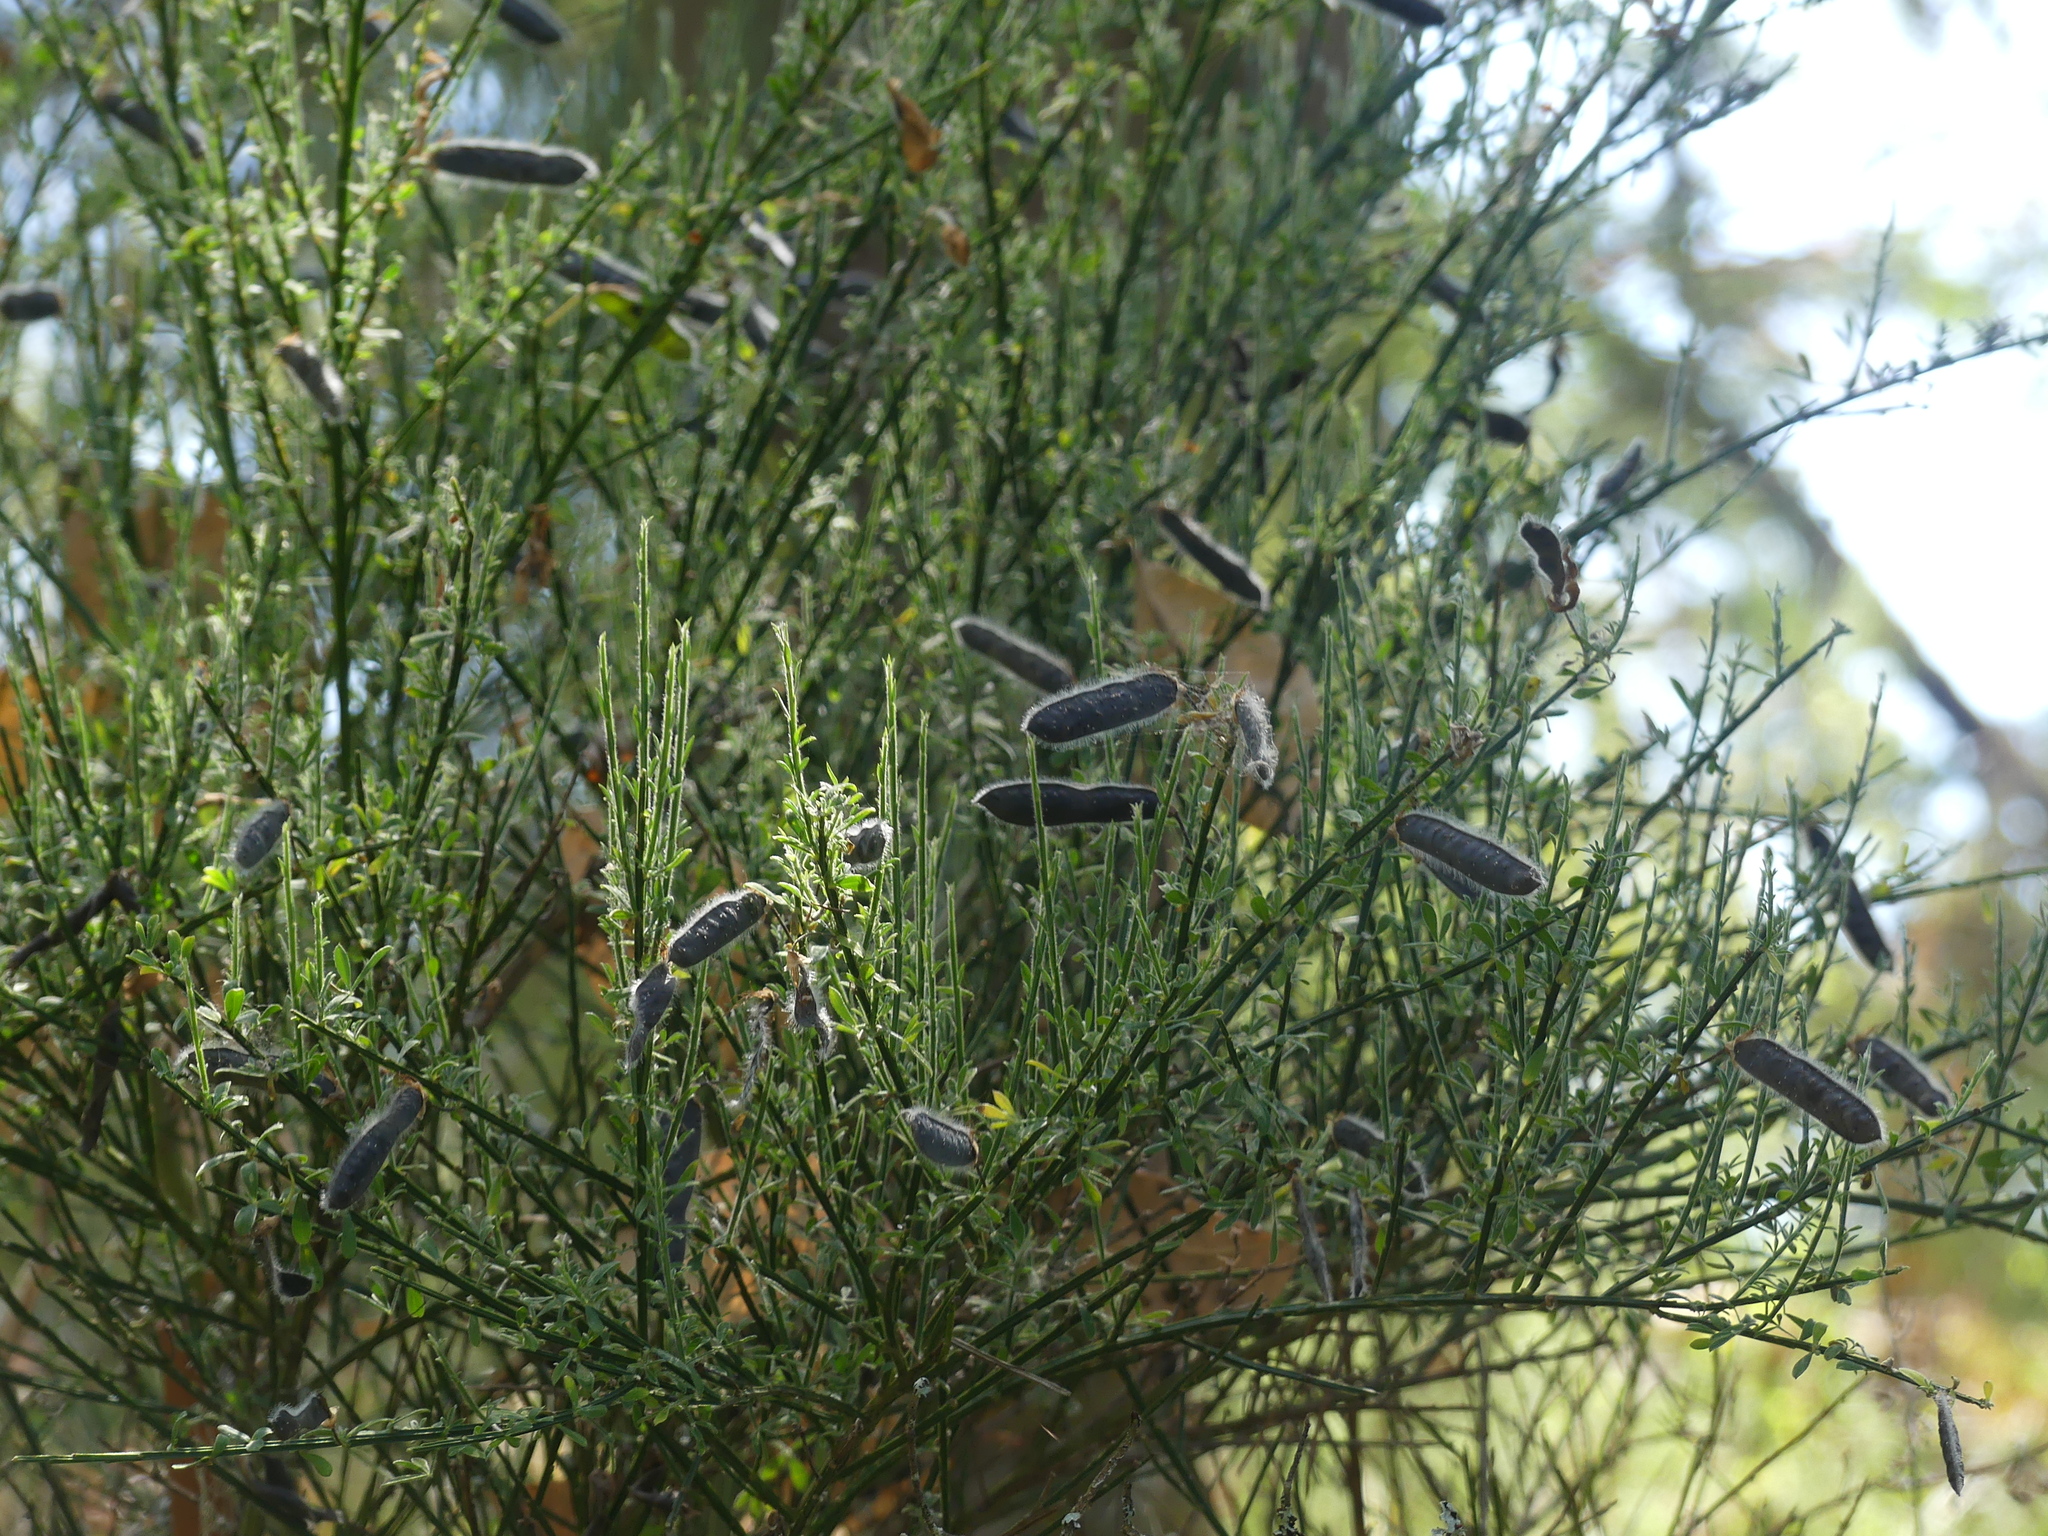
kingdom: Plantae
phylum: Tracheophyta
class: Magnoliopsida
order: Fabales
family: Fabaceae
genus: Cytisus
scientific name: Cytisus scoparius
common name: Scotch broom
